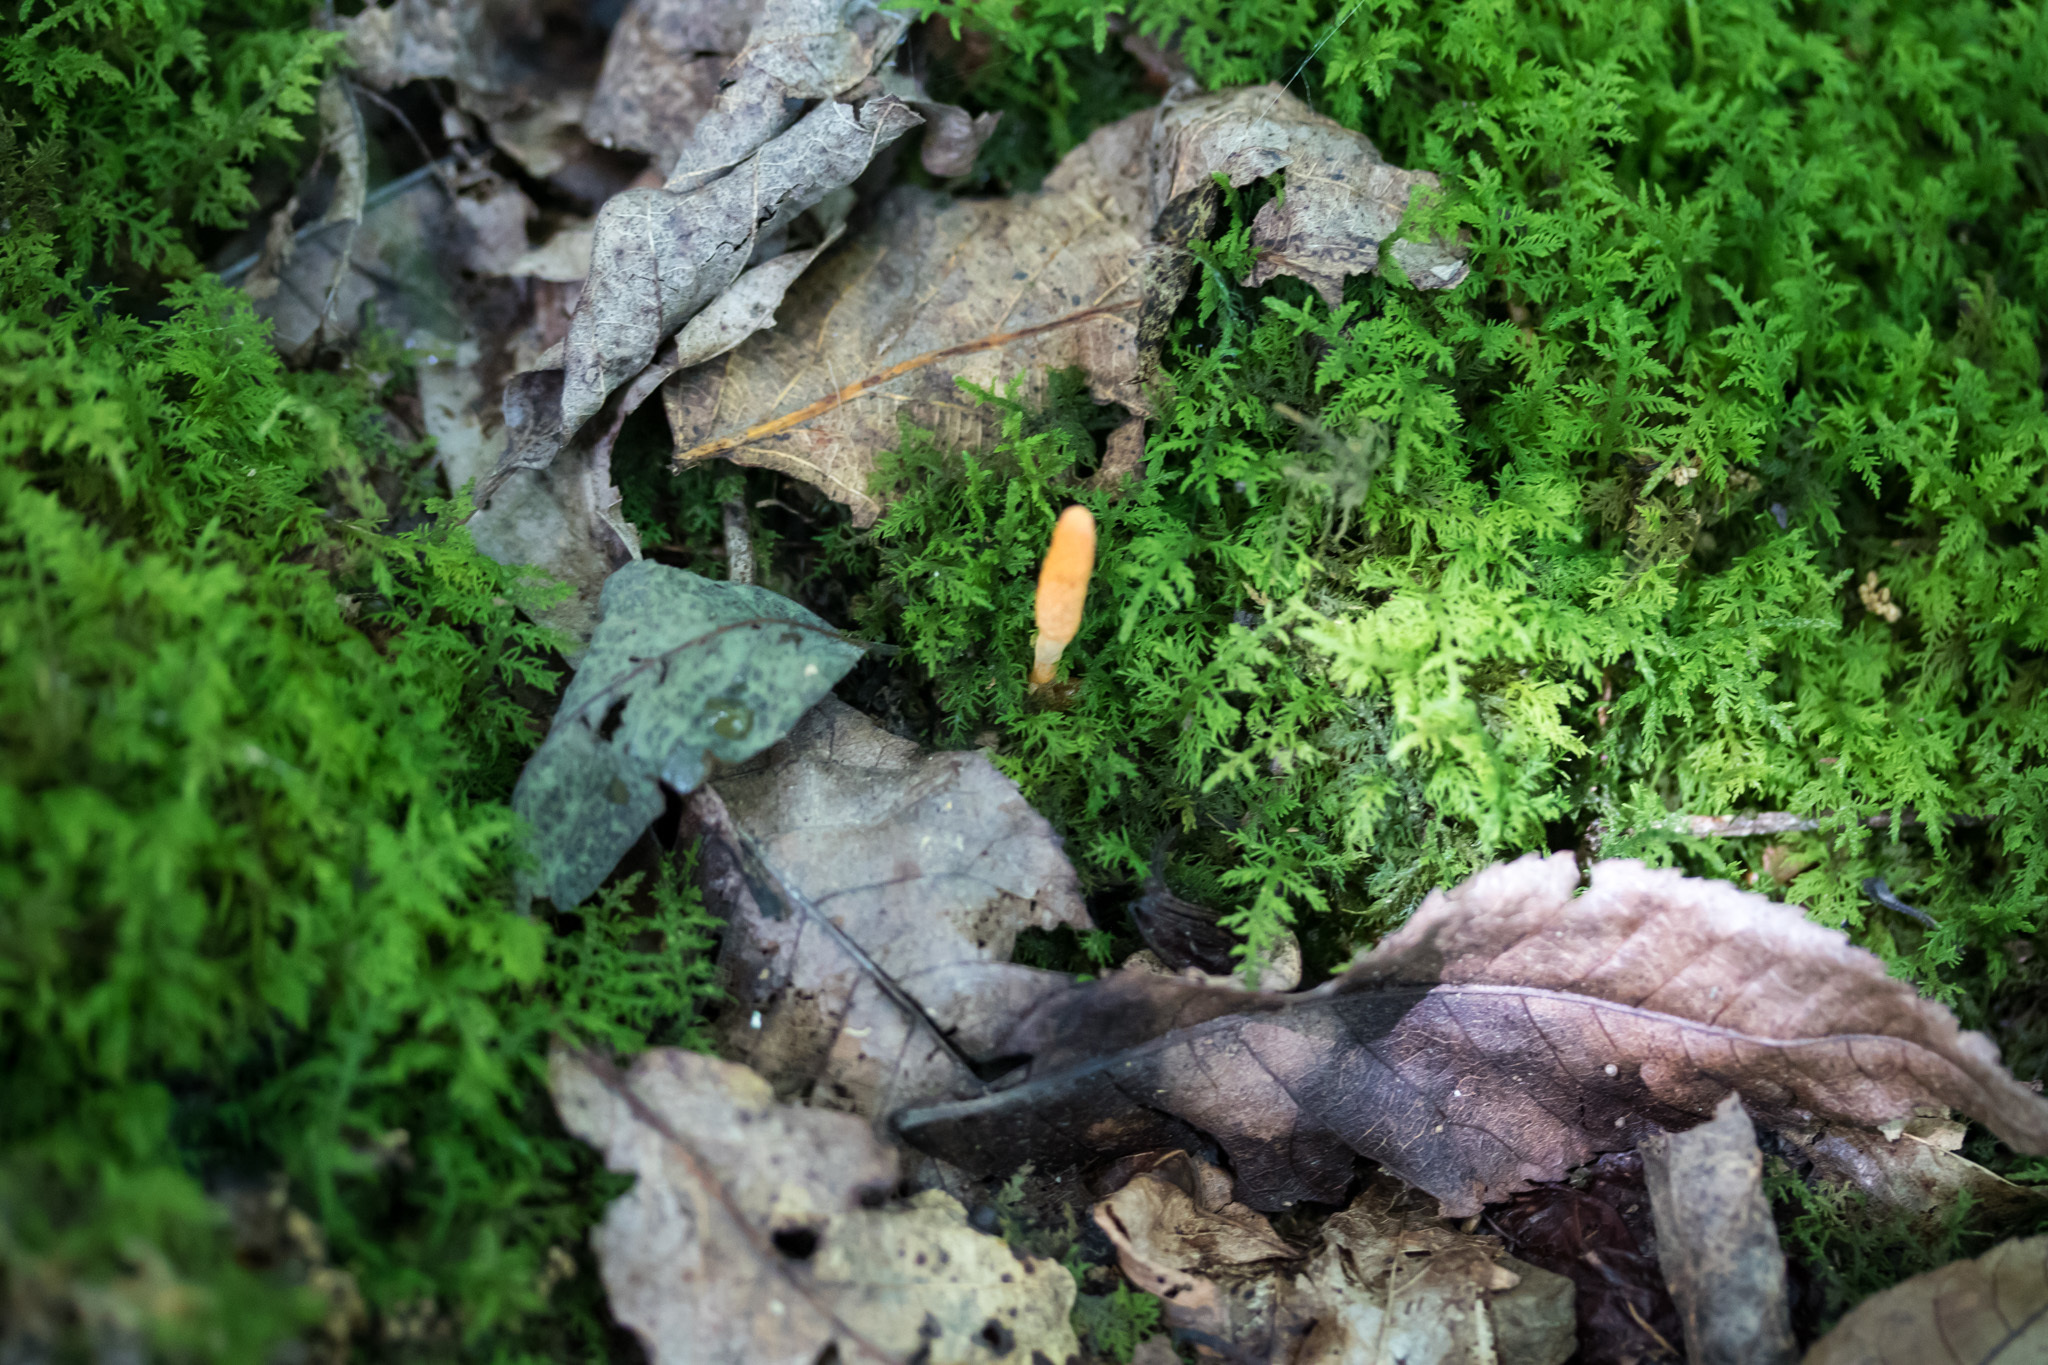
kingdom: Fungi
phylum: Ascomycota
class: Sordariomycetes
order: Hypocreales
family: Cordycipitaceae
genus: Cordyceps
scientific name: Cordyceps militaris
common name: Scarlet caterpillar fungus
